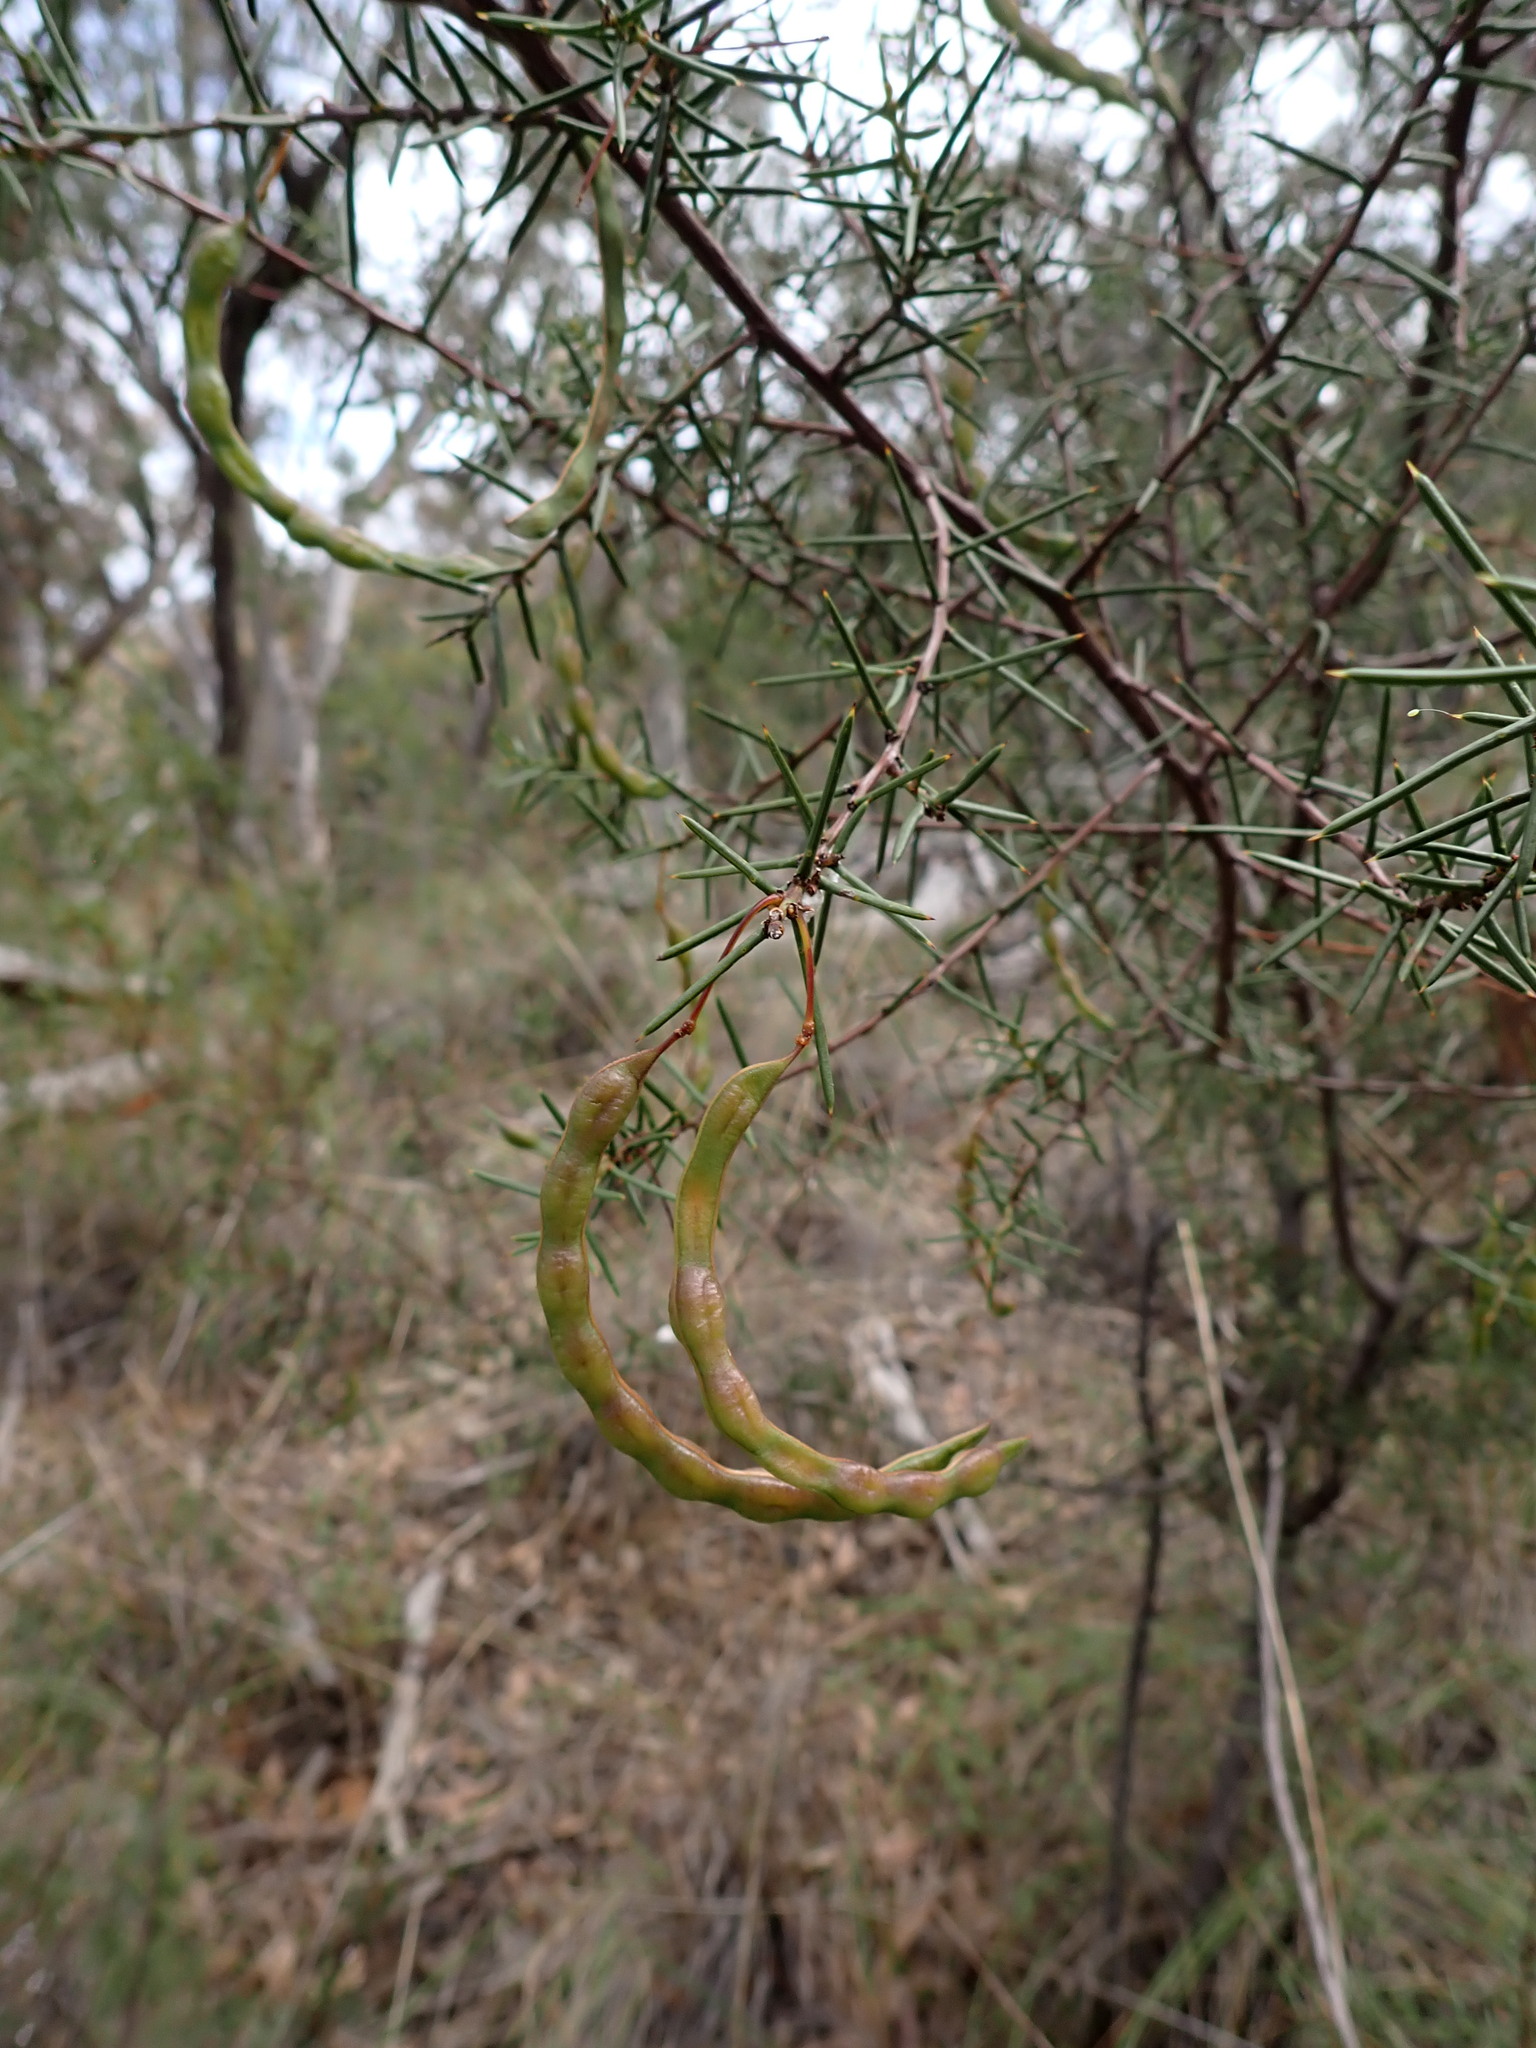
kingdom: Plantae
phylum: Tracheophyta
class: Magnoliopsida
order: Fabales
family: Fabaceae
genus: Acacia
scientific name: Acacia genistifolia
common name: Early wattle
